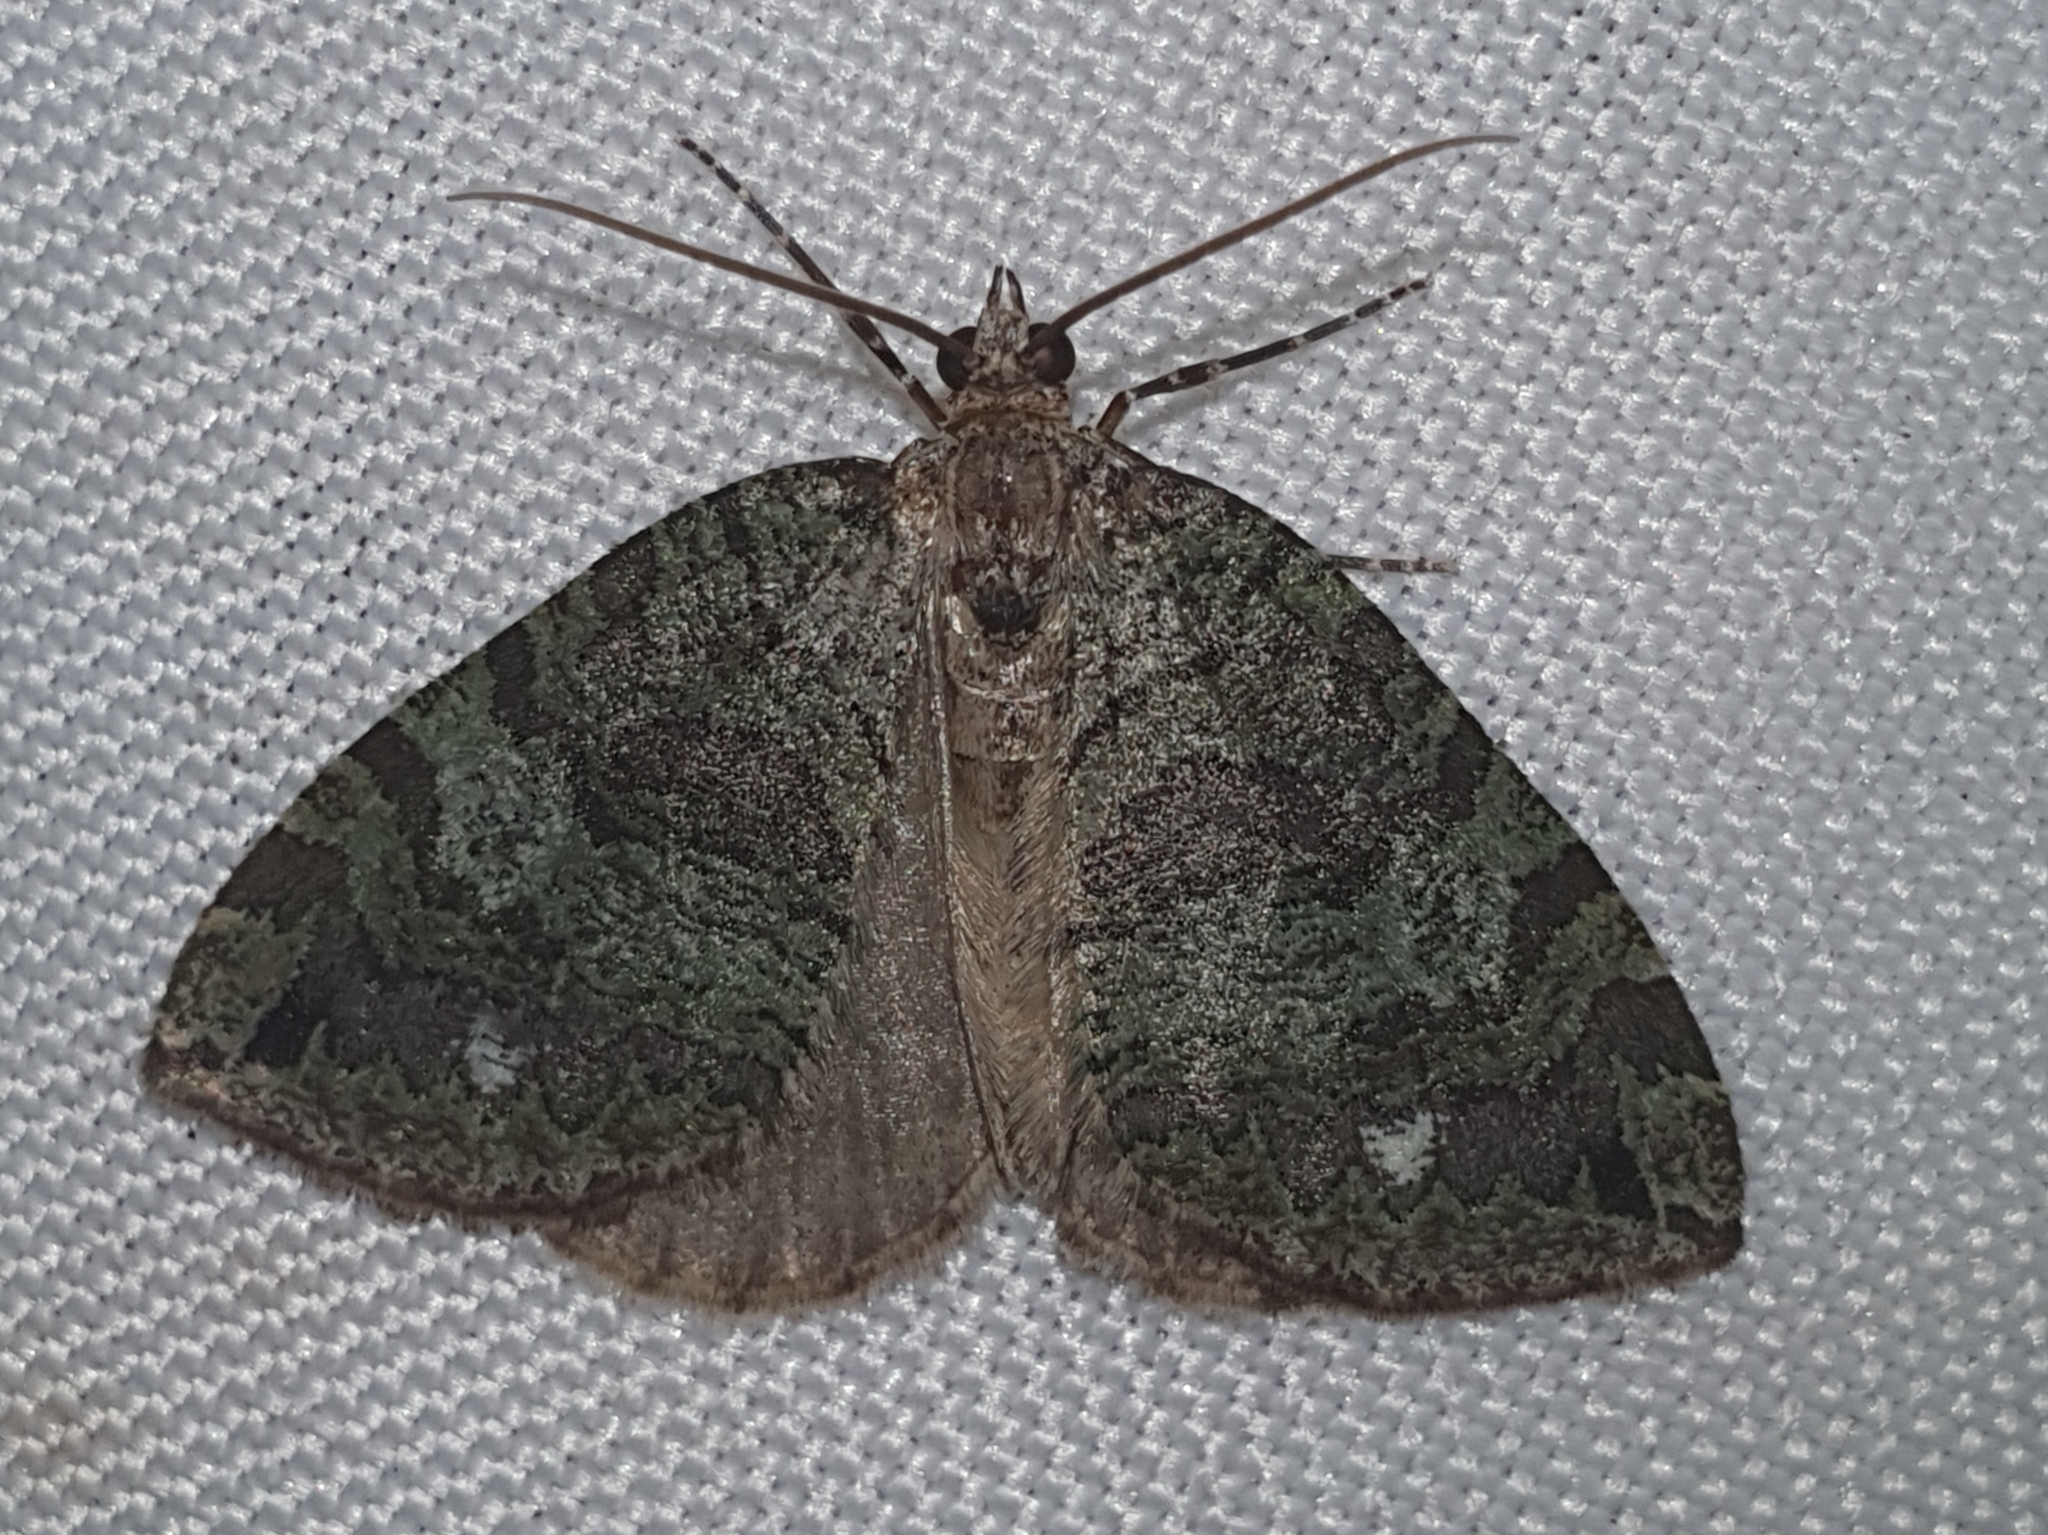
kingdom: Animalia
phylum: Arthropoda
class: Insecta
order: Lepidoptera
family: Geometridae
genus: Hydriomena
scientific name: Hydriomena furcata
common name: July highflyer
